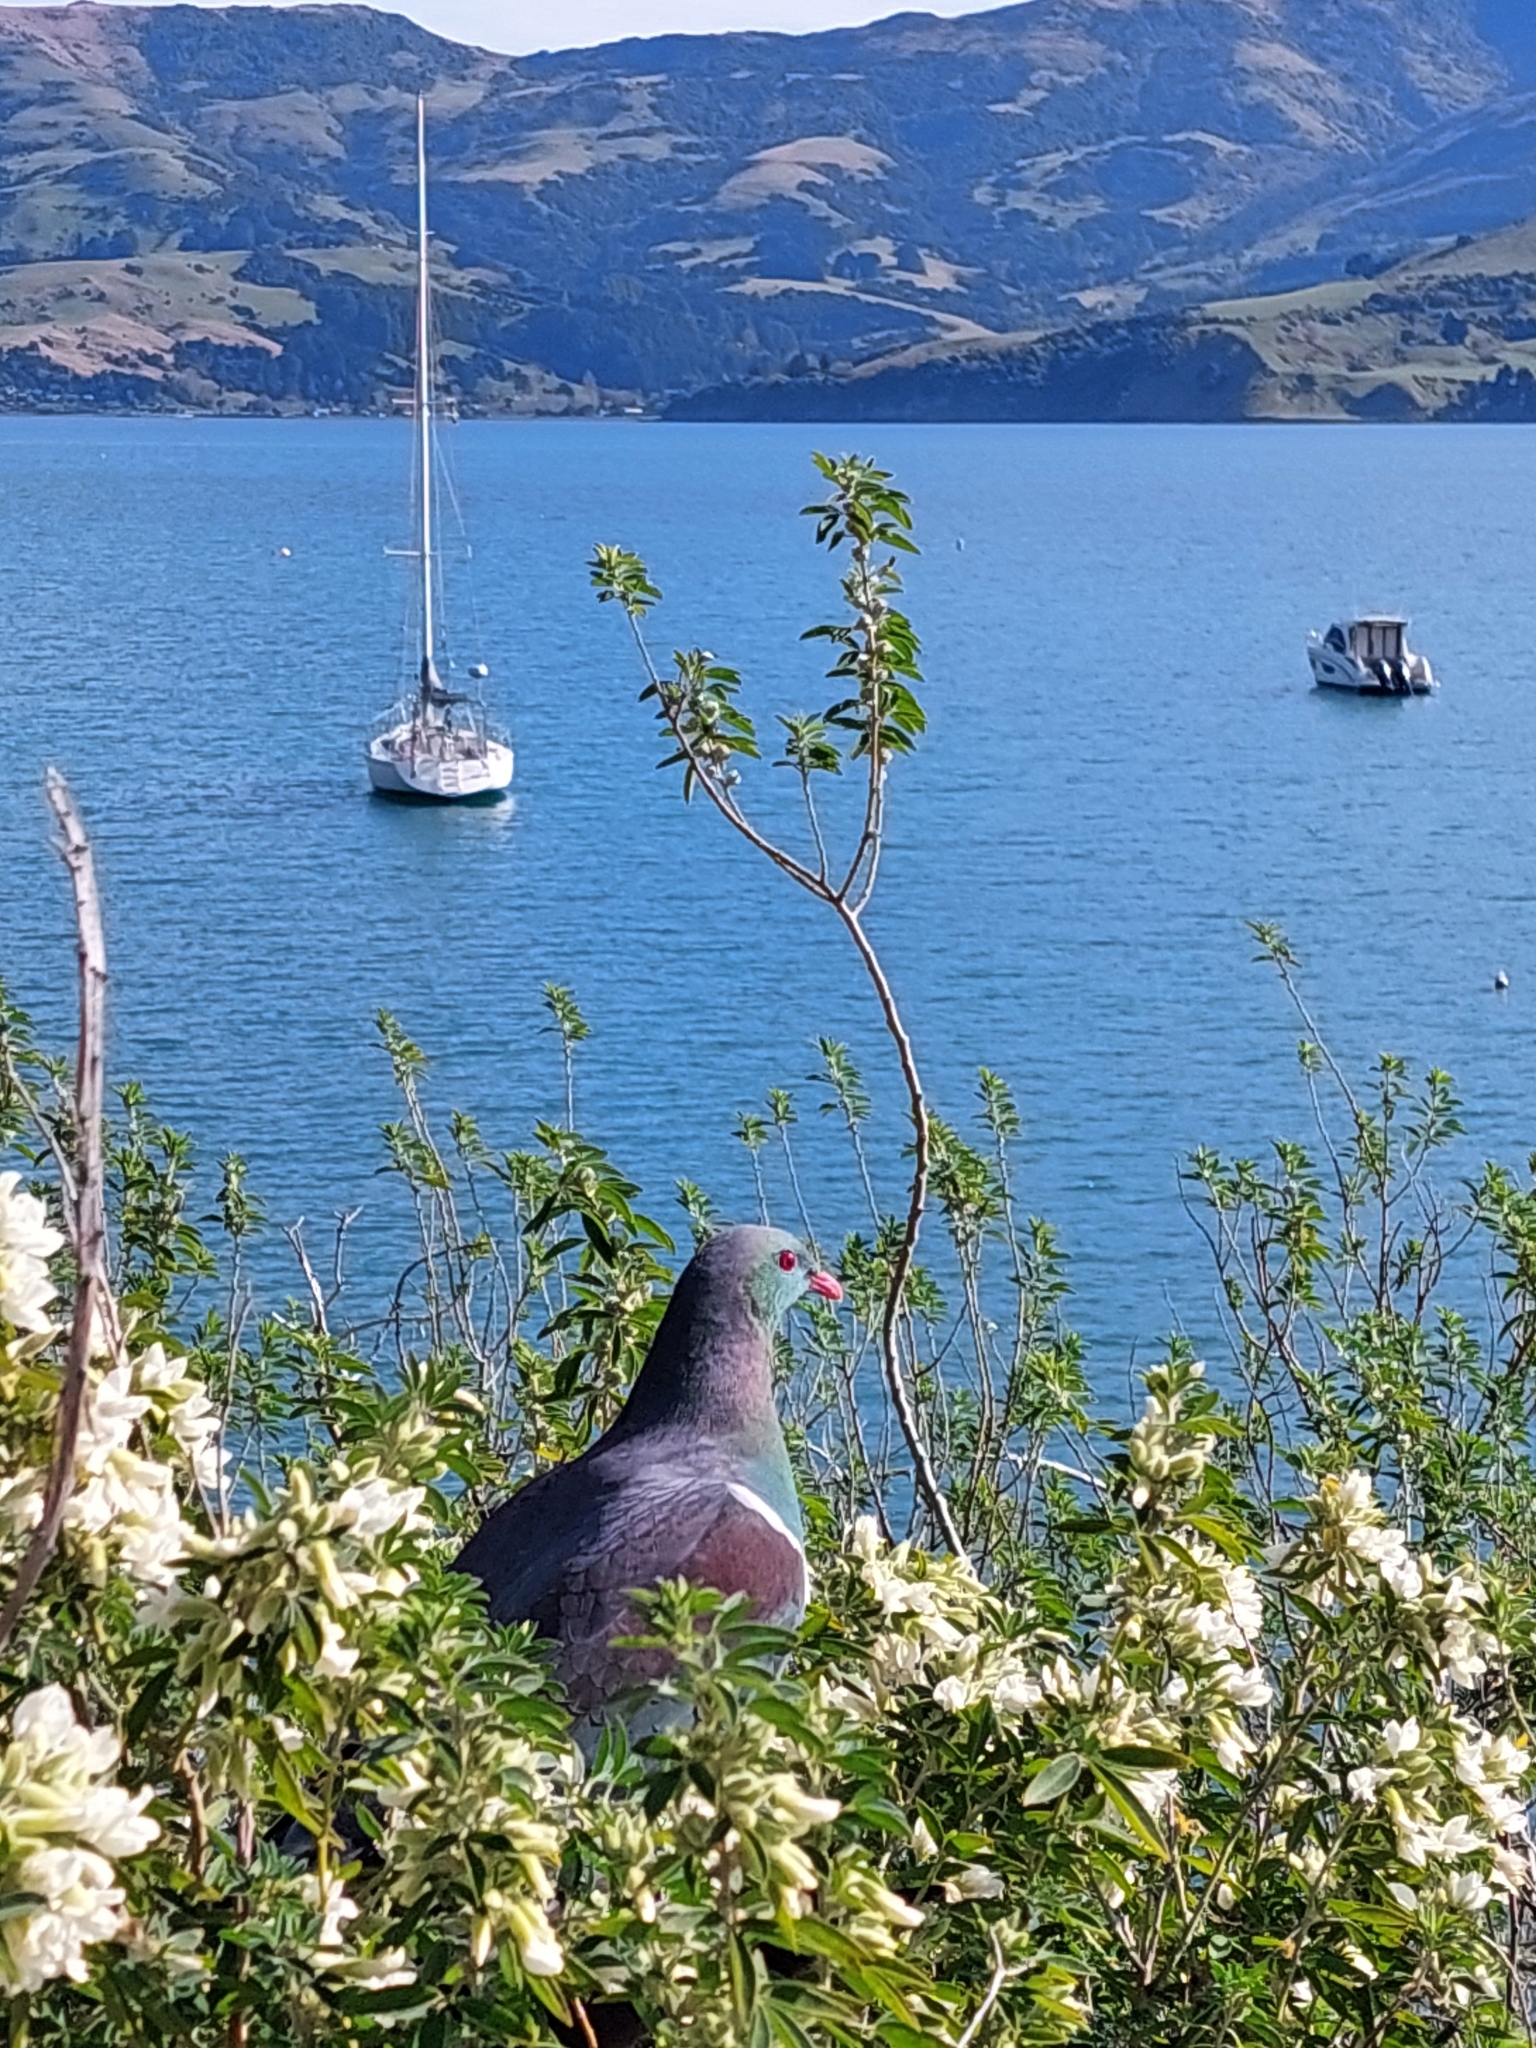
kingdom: Animalia
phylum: Chordata
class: Aves
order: Columbiformes
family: Columbidae
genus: Hemiphaga
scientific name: Hemiphaga novaeseelandiae
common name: New zealand pigeon
